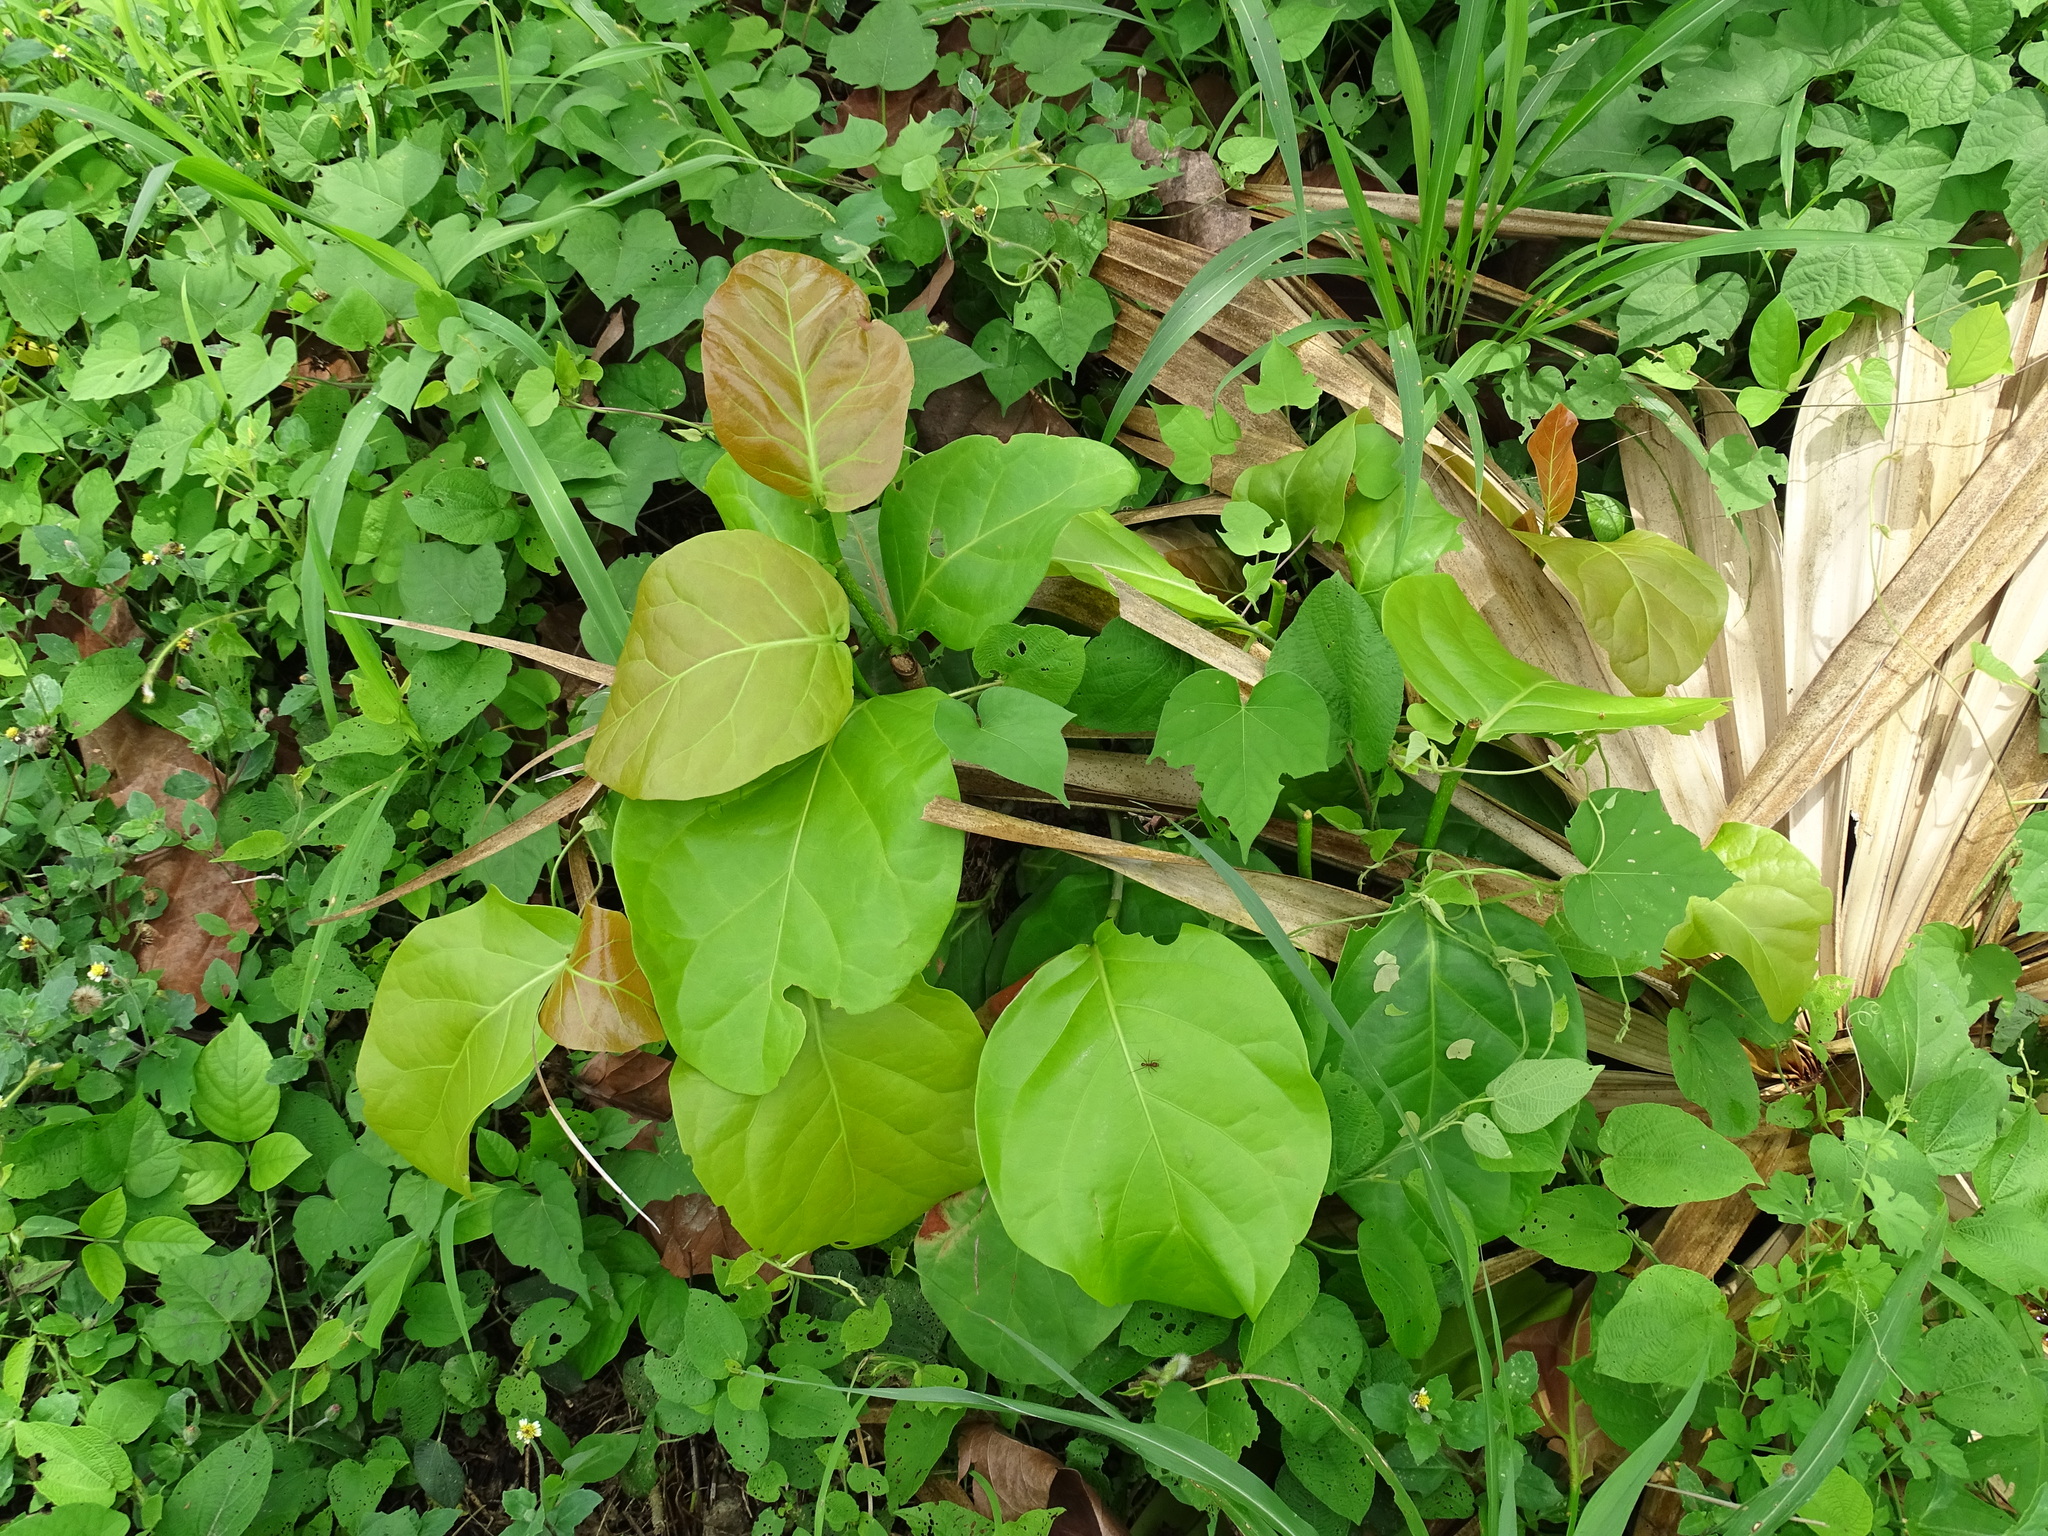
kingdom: Plantae
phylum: Tracheophyta
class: Magnoliopsida
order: Caryophyllales
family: Polygonaceae
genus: Coccoloba
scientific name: Coccoloba spicata
